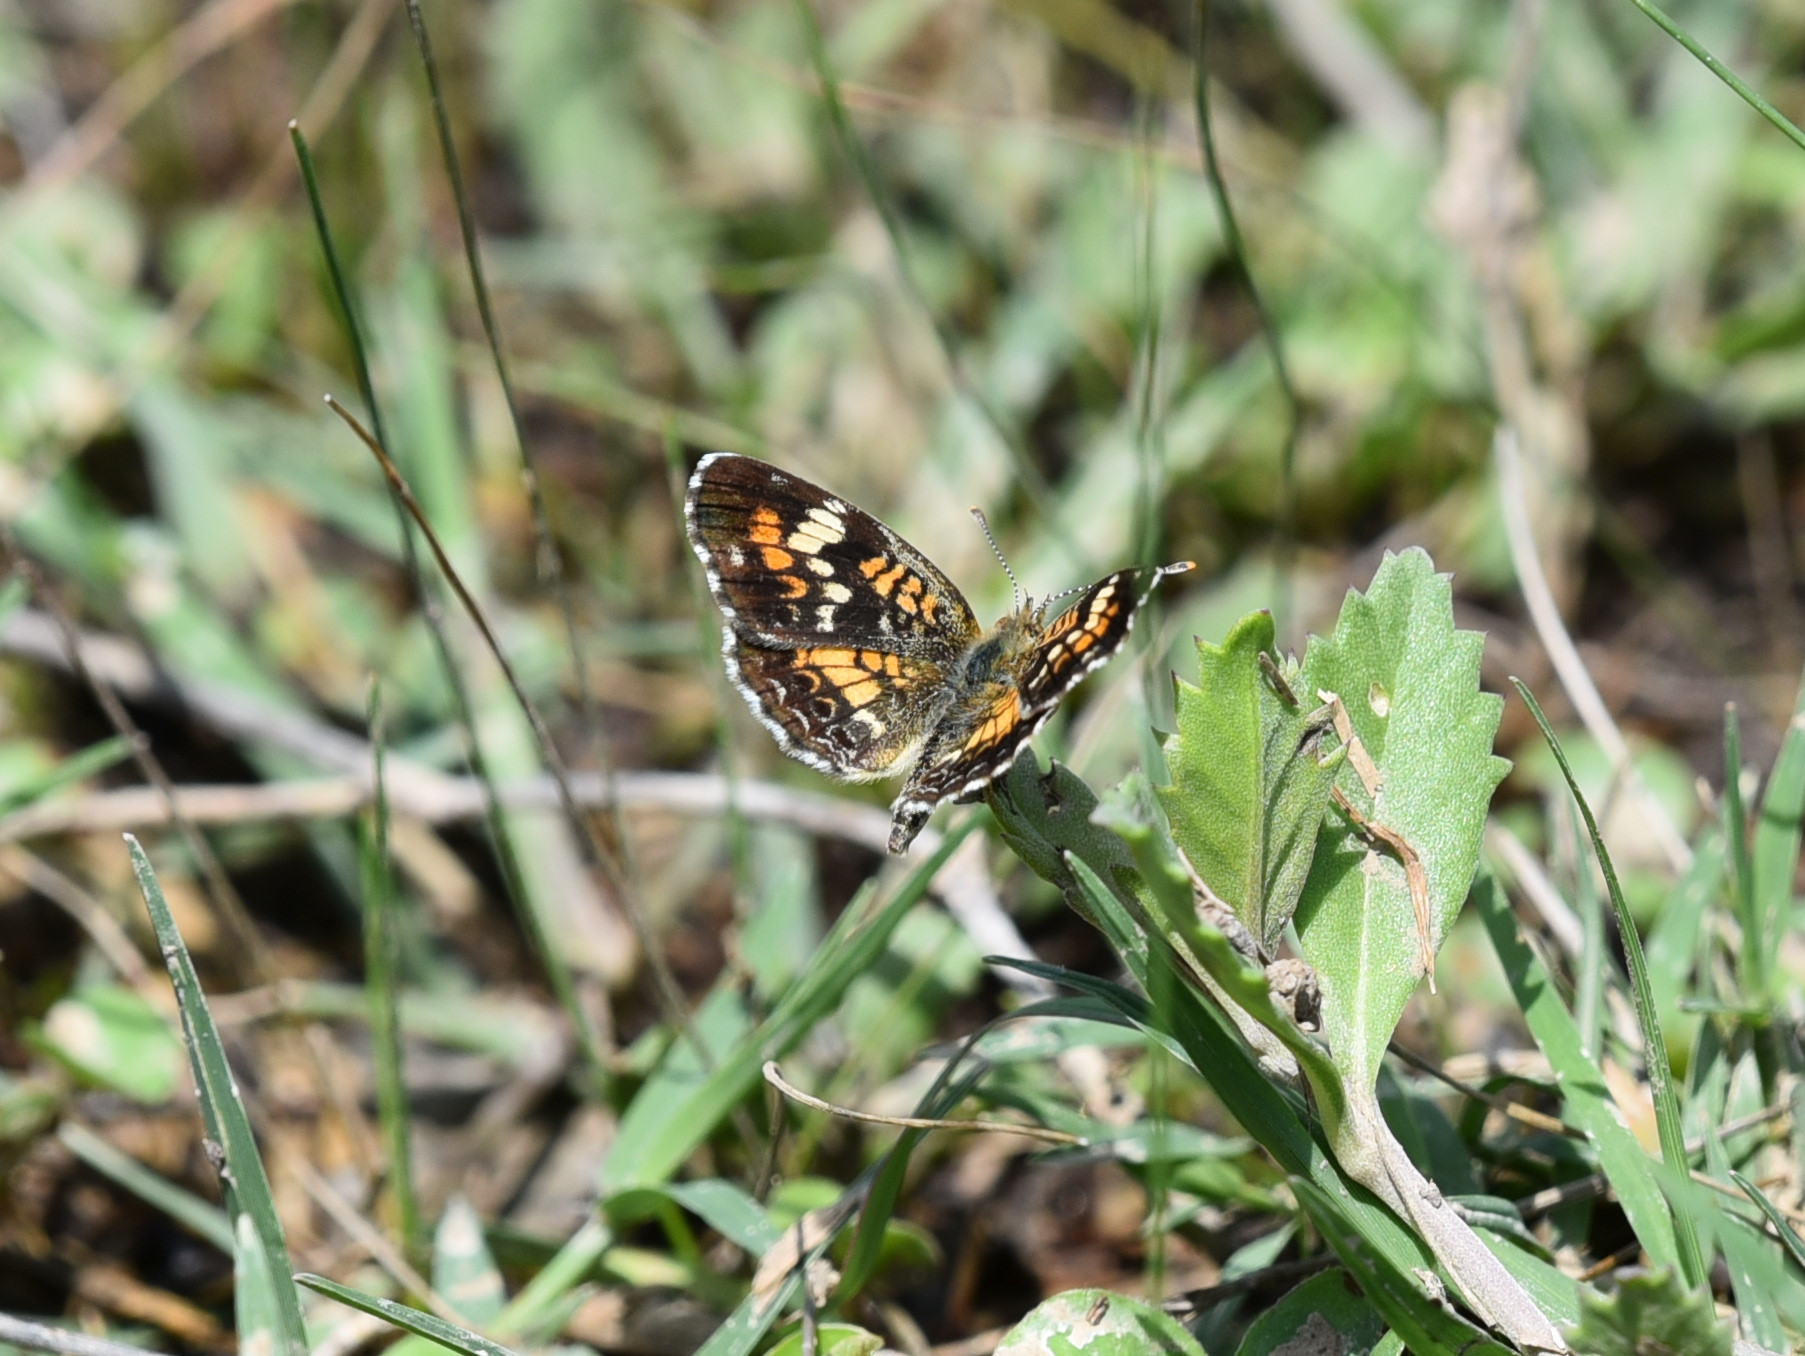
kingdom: Animalia
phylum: Arthropoda
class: Insecta
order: Lepidoptera
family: Nymphalidae
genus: Phyciodes
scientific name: Phyciodes phaon
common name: Phaon crescent
